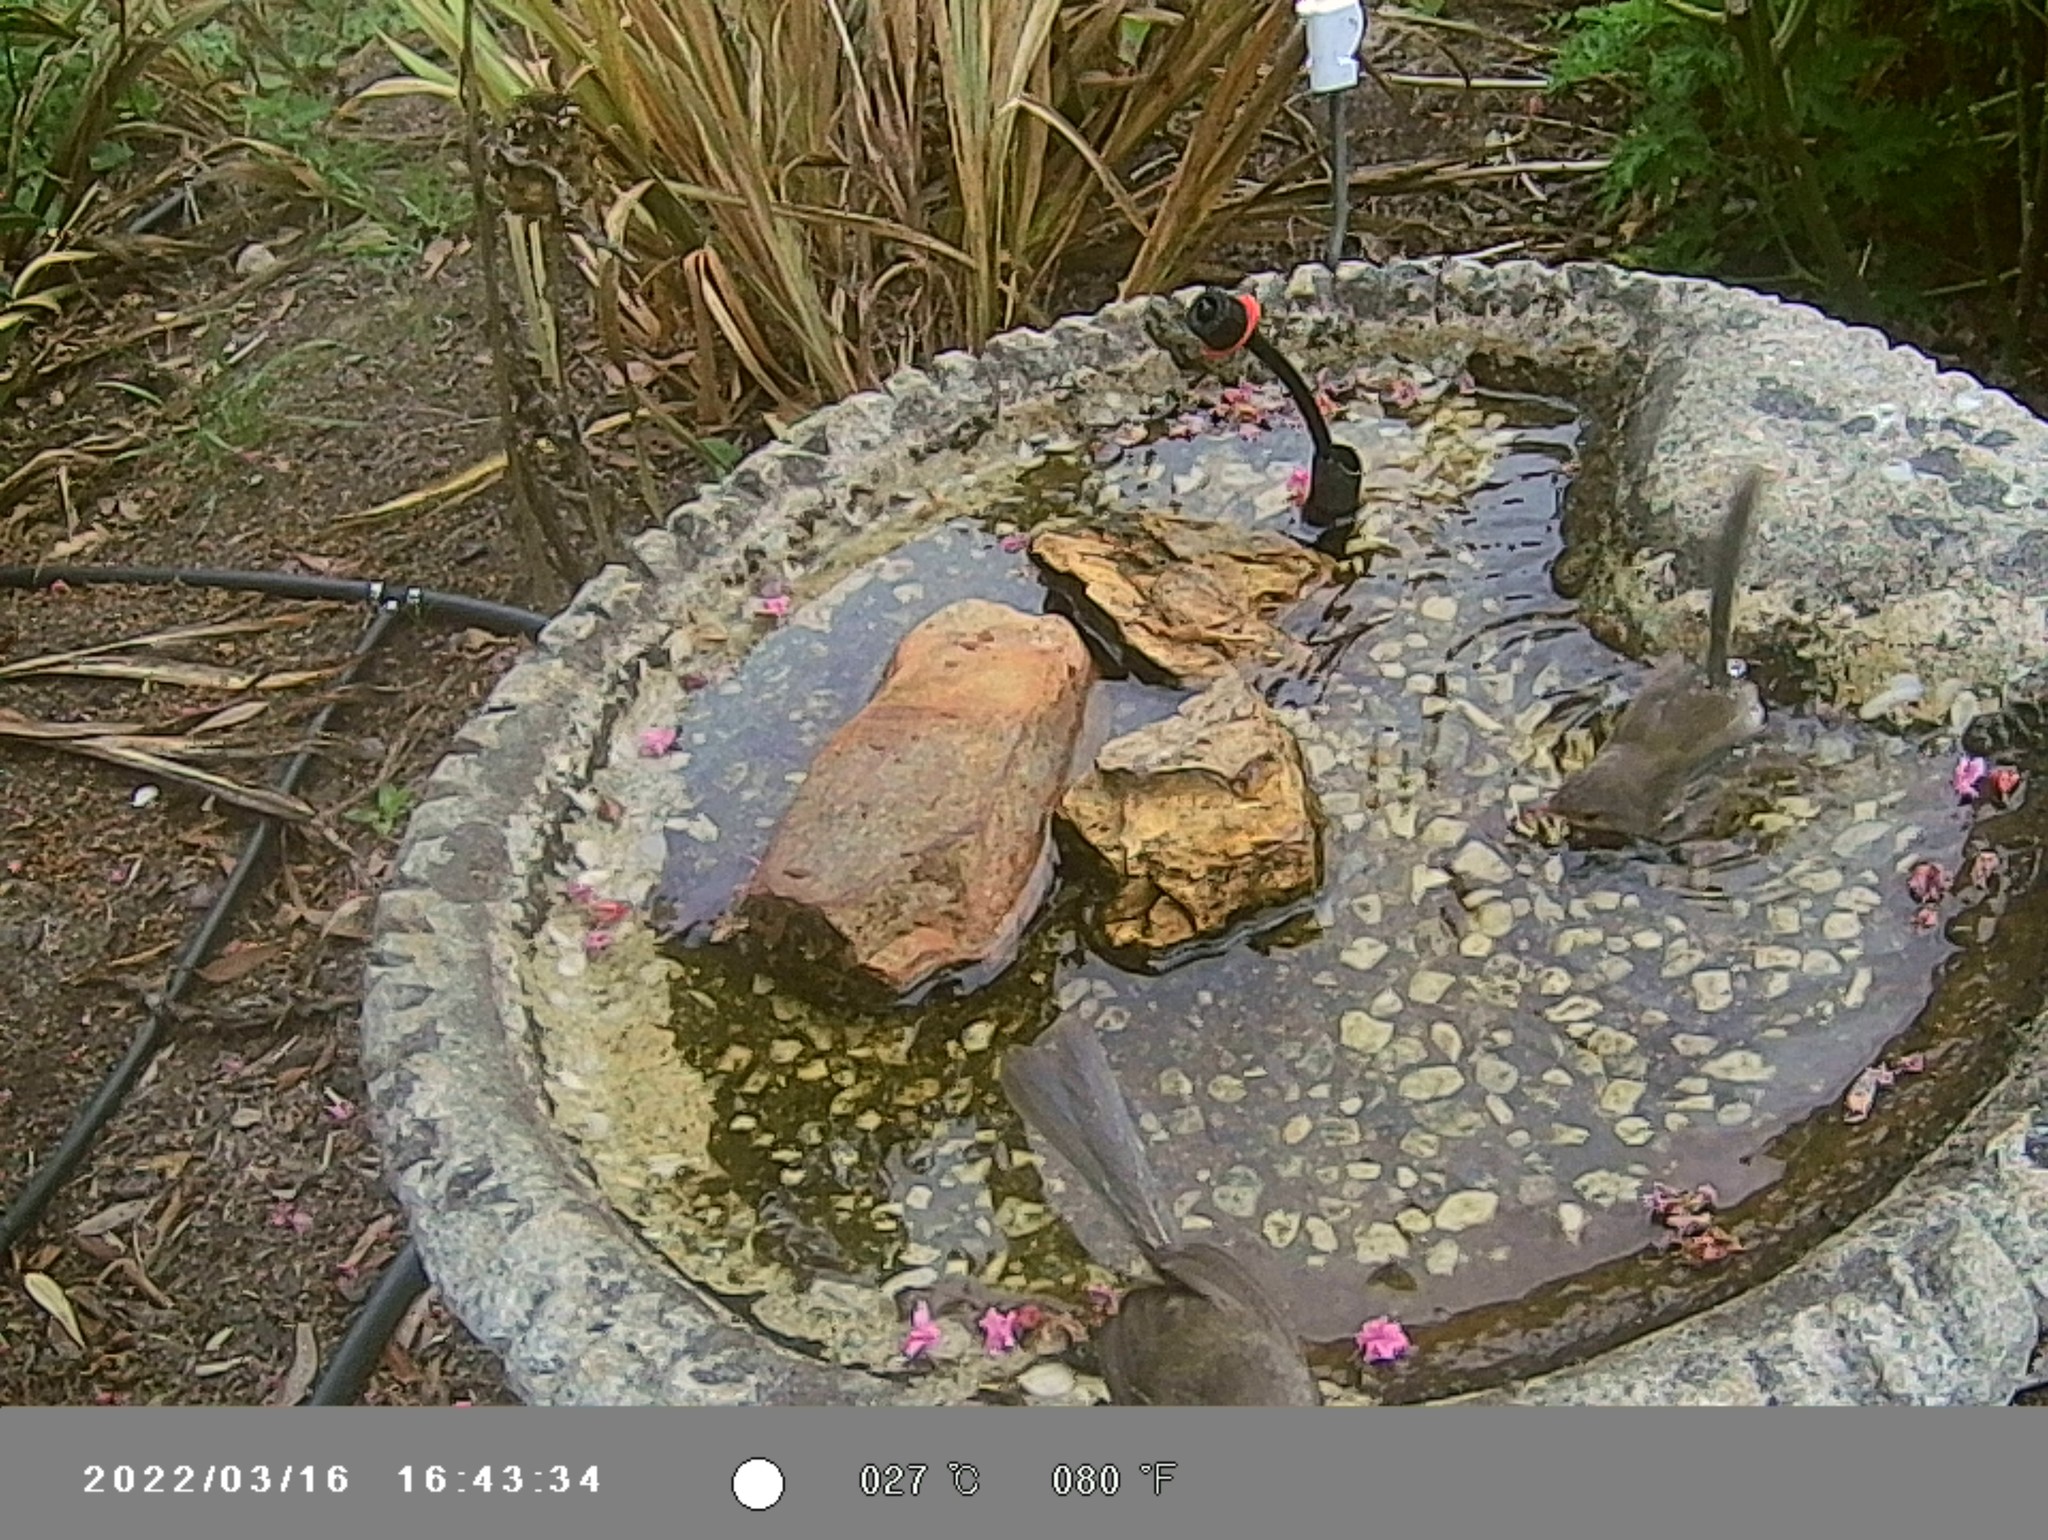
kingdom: Animalia
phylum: Chordata
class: Aves
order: Passeriformes
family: Maluridae
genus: Malurus
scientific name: Malurus cyaneus
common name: Superb fairywren
